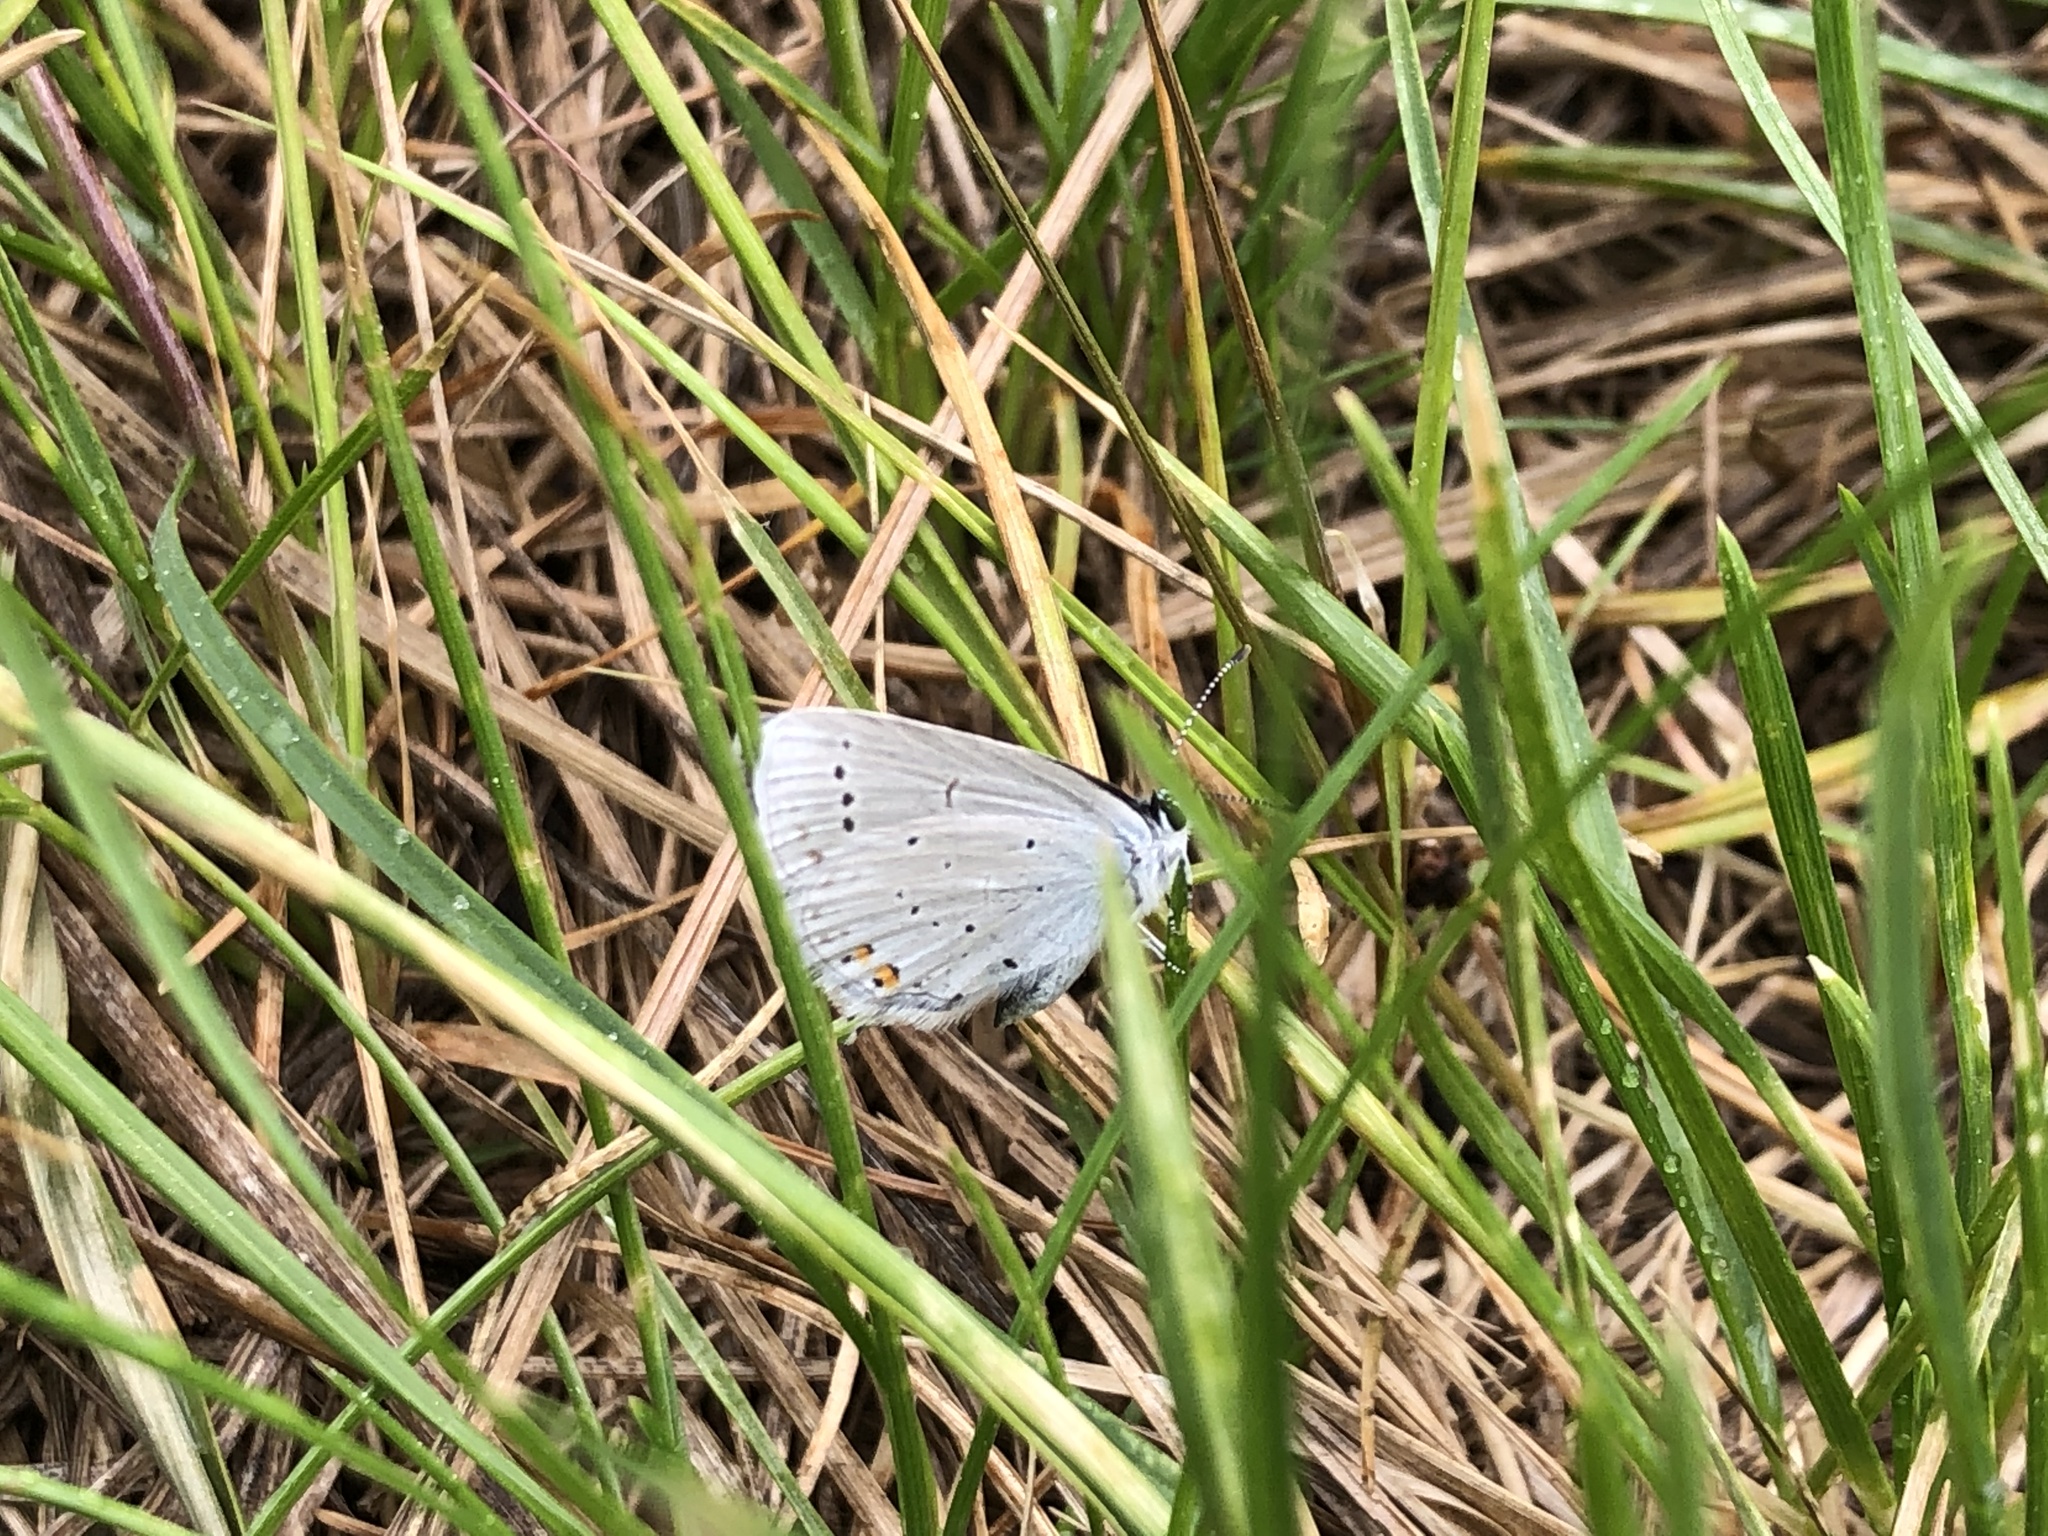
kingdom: Animalia
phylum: Arthropoda
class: Insecta
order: Lepidoptera
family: Lycaenidae
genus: Elkalyce
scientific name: Elkalyce argiades
